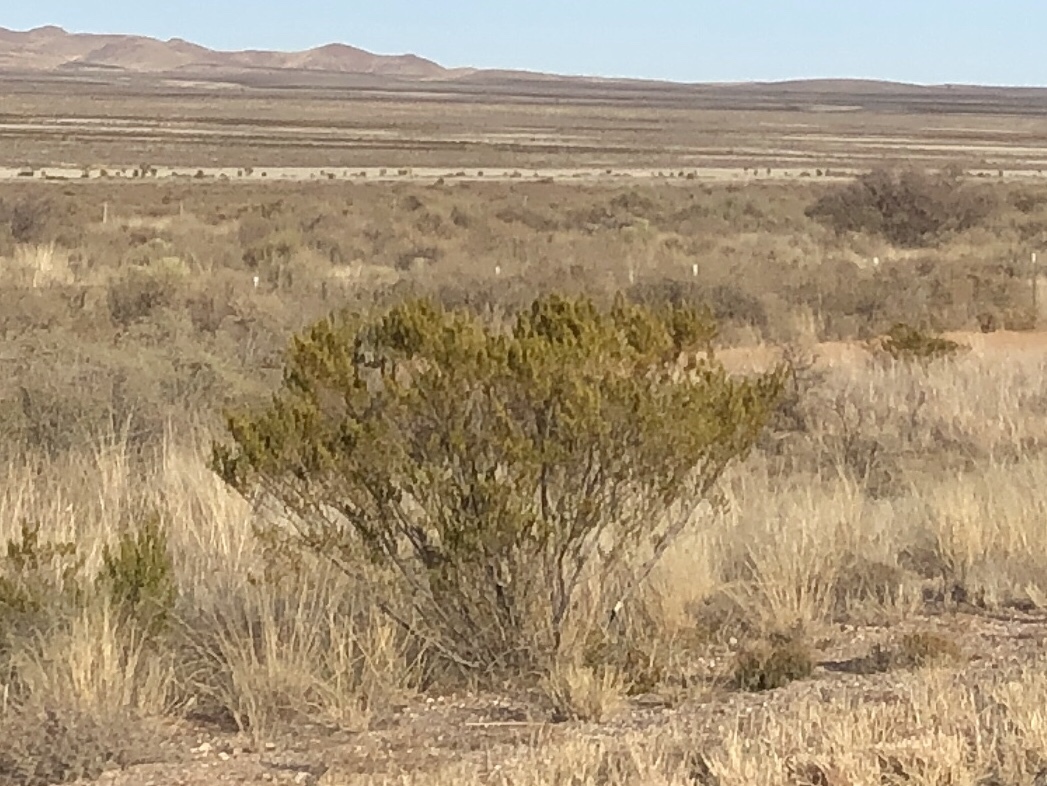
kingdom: Plantae
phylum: Tracheophyta
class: Magnoliopsida
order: Zygophyllales
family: Zygophyllaceae
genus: Larrea
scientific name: Larrea tridentata
